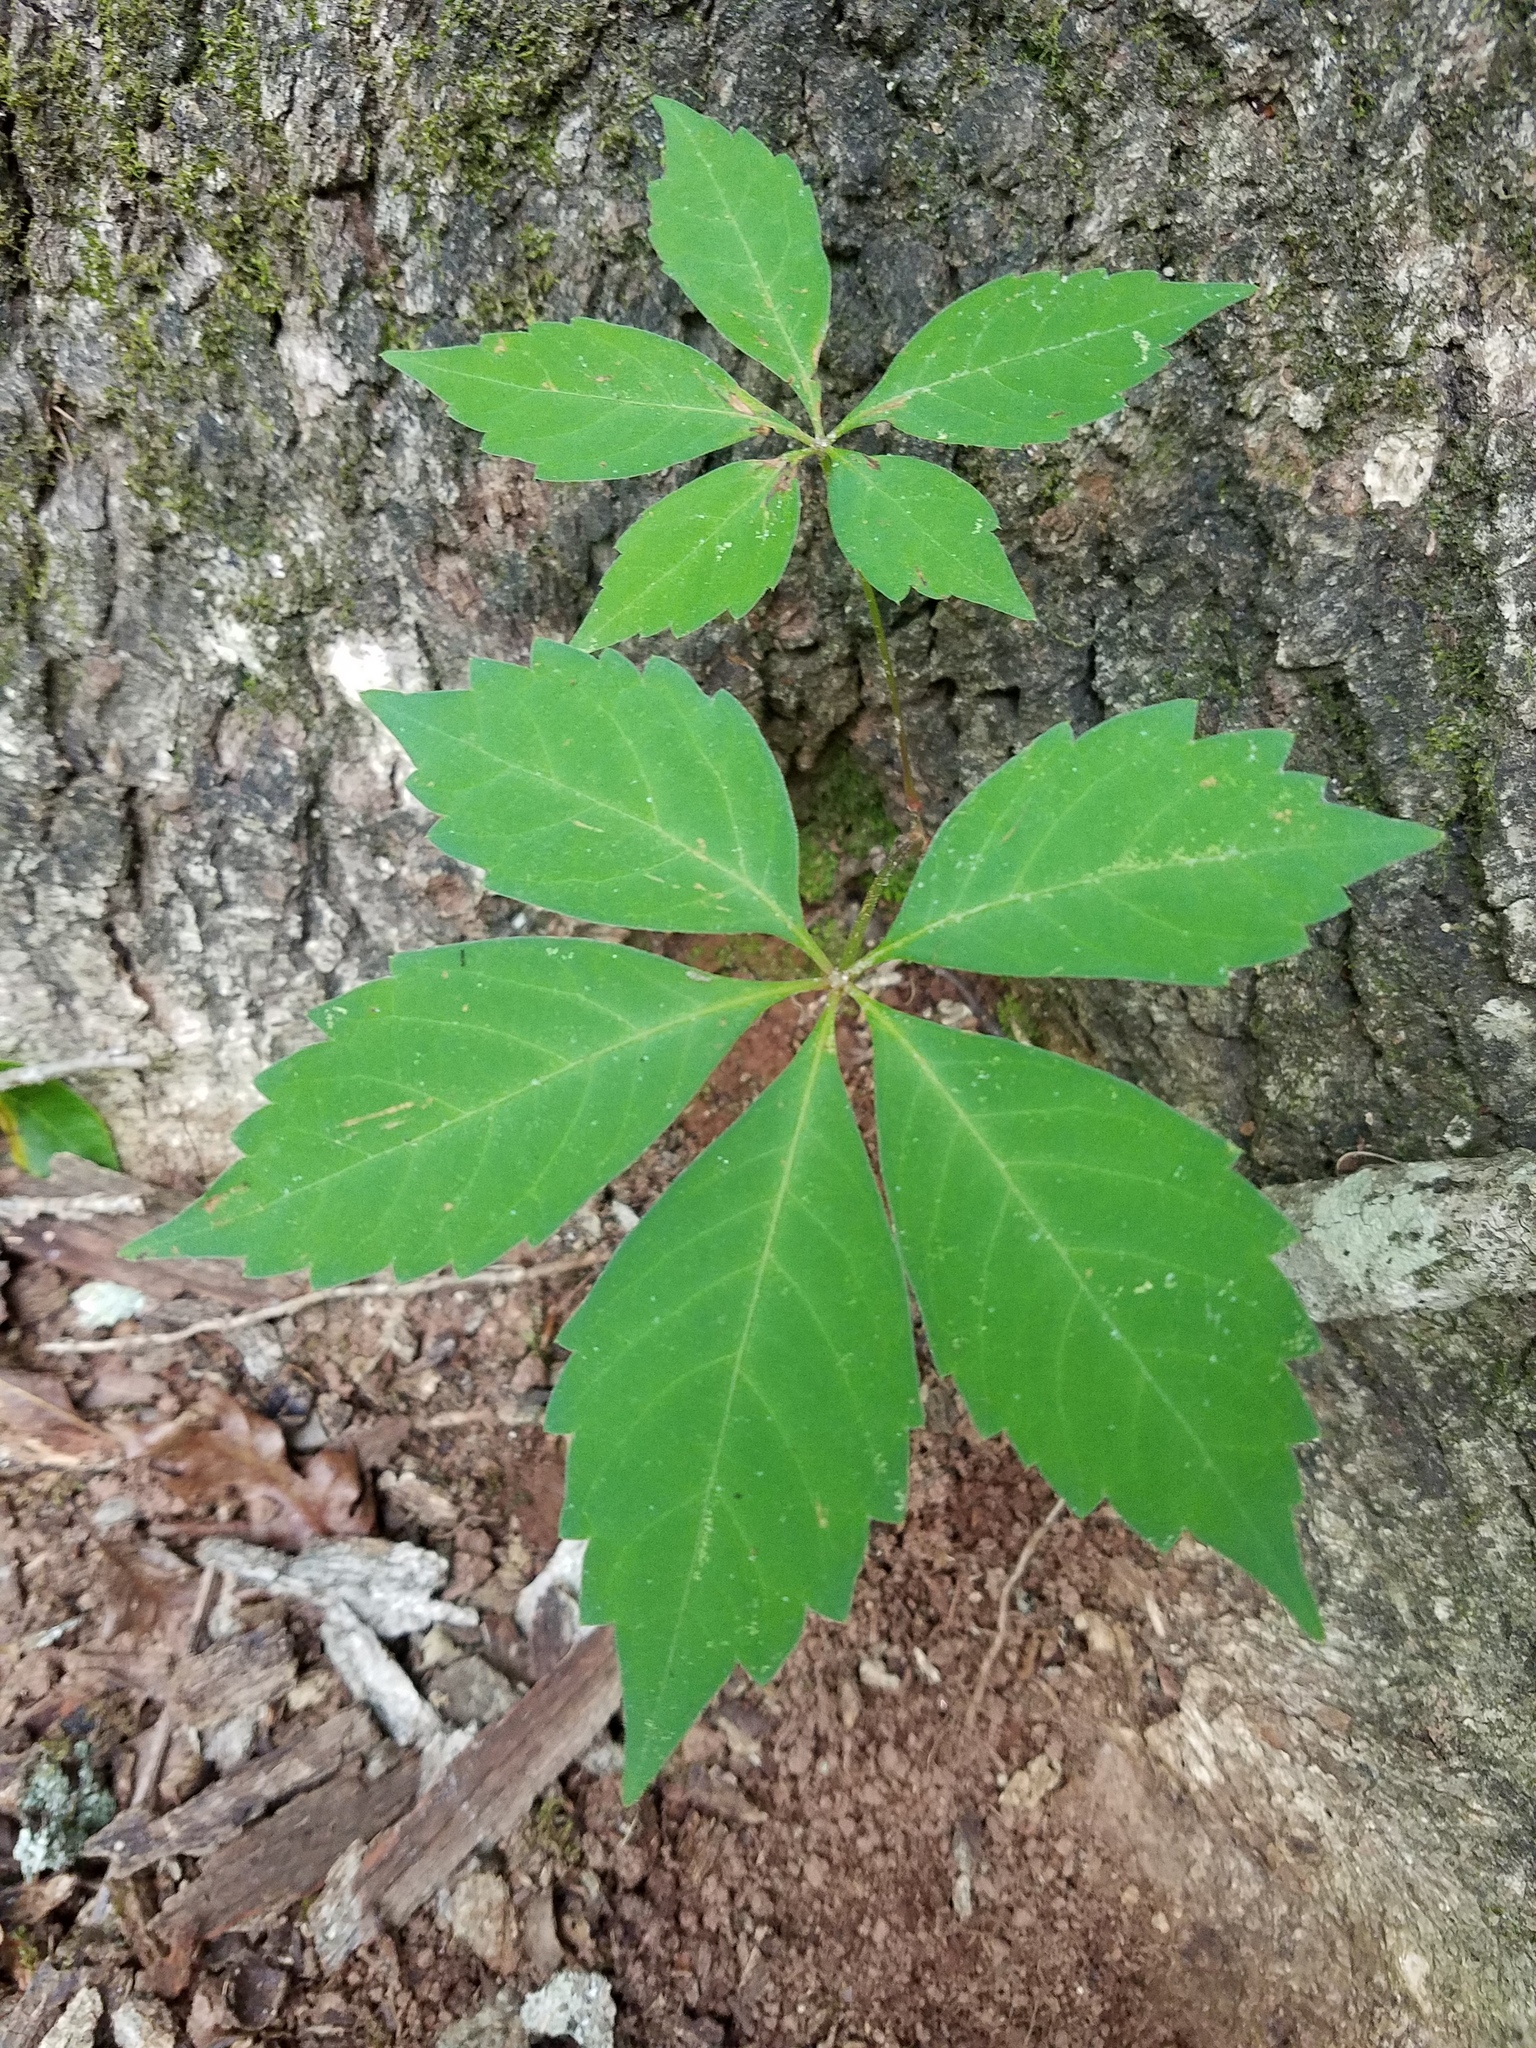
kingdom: Plantae
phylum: Tracheophyta
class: Magnoliopsida
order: Vitales
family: Vitaceae
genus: Parthenocissus
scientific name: Parthenocissus quinquefolia
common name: Virginia-creeper
